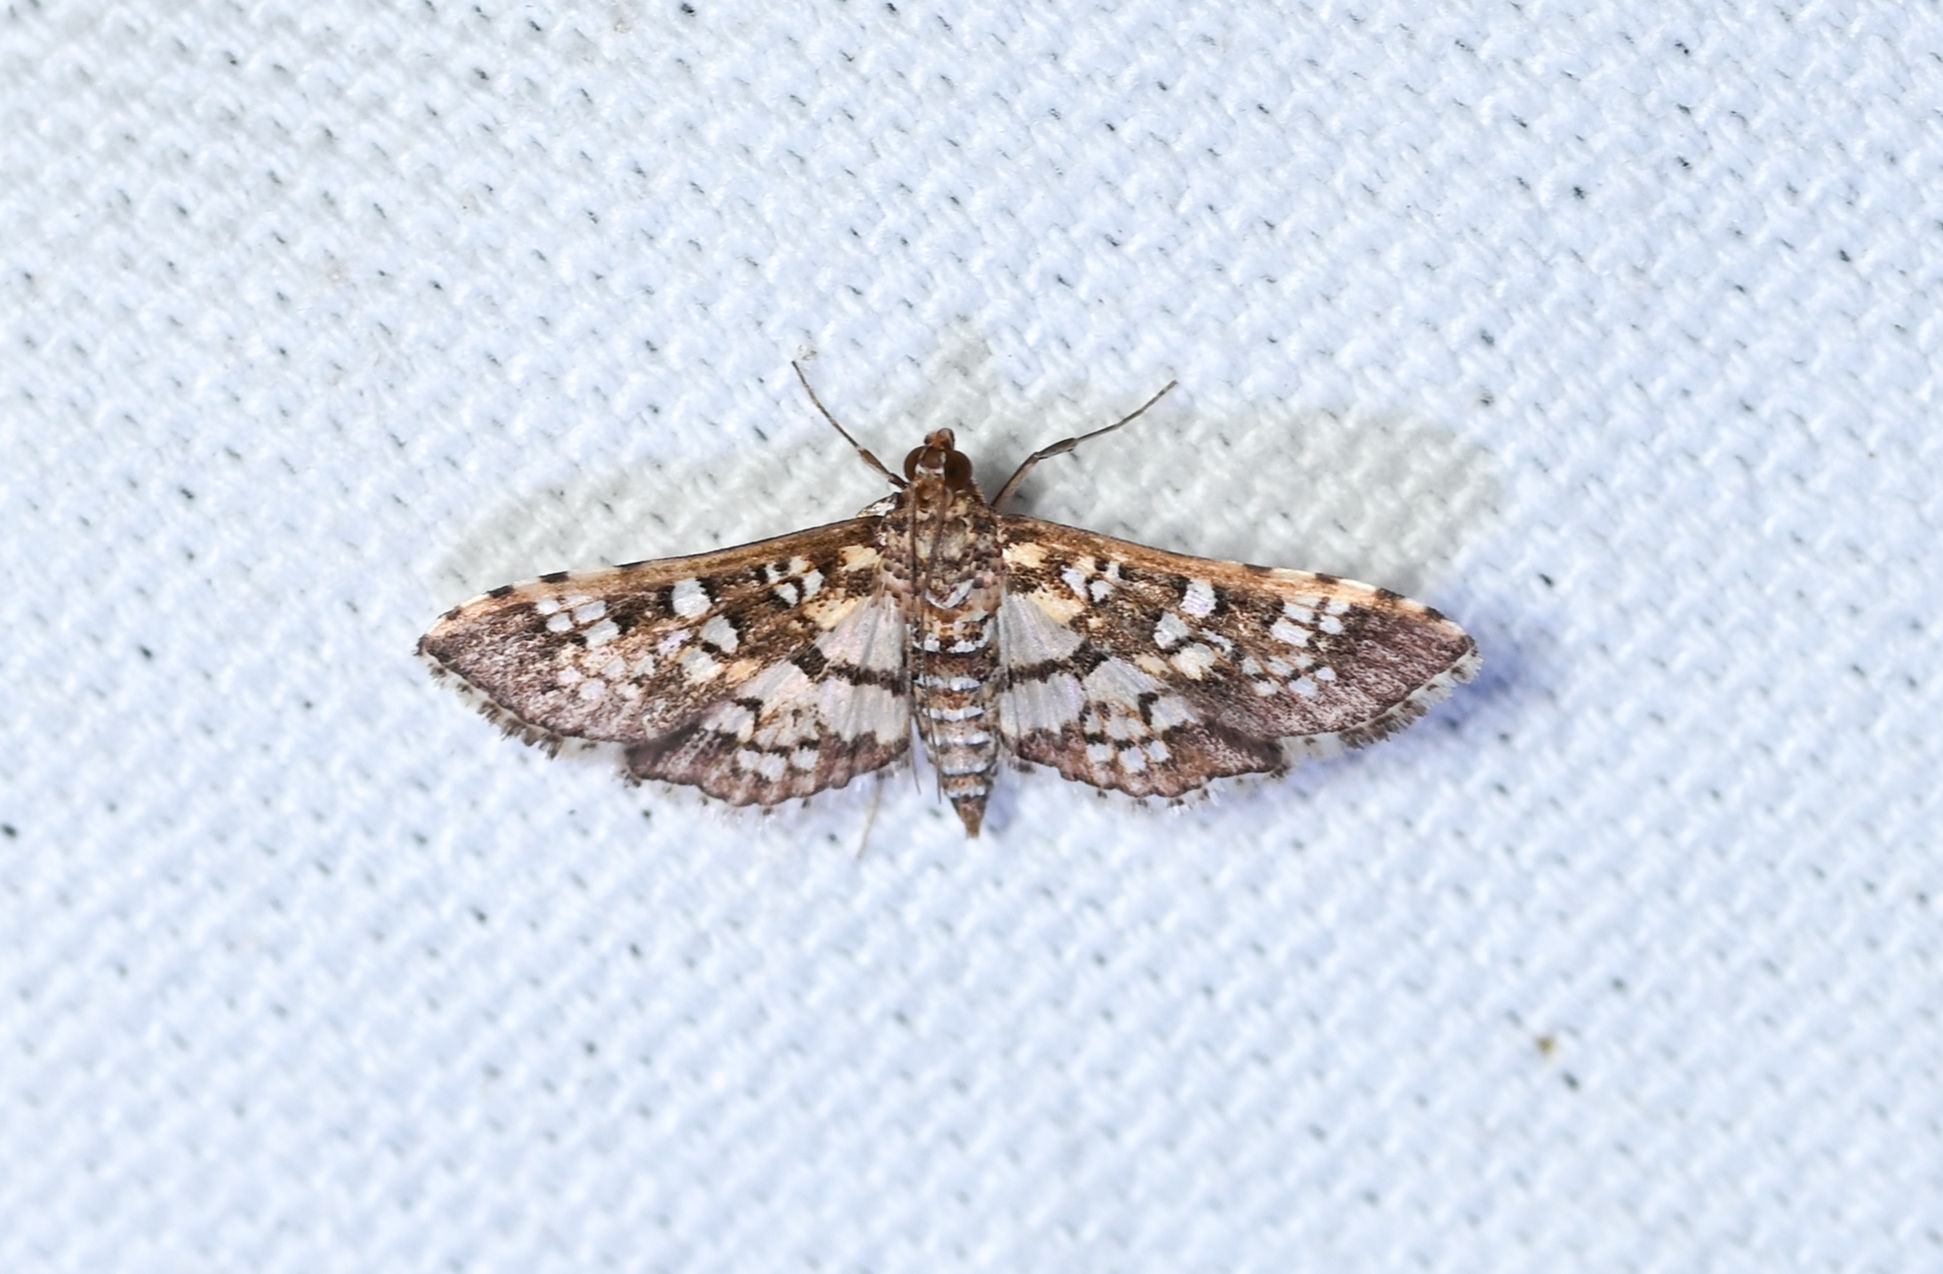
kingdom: Animalia
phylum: Arthropoda
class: Insecta
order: Lepidoptera
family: Crambidae
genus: Samea
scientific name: Samea ecclesialis
